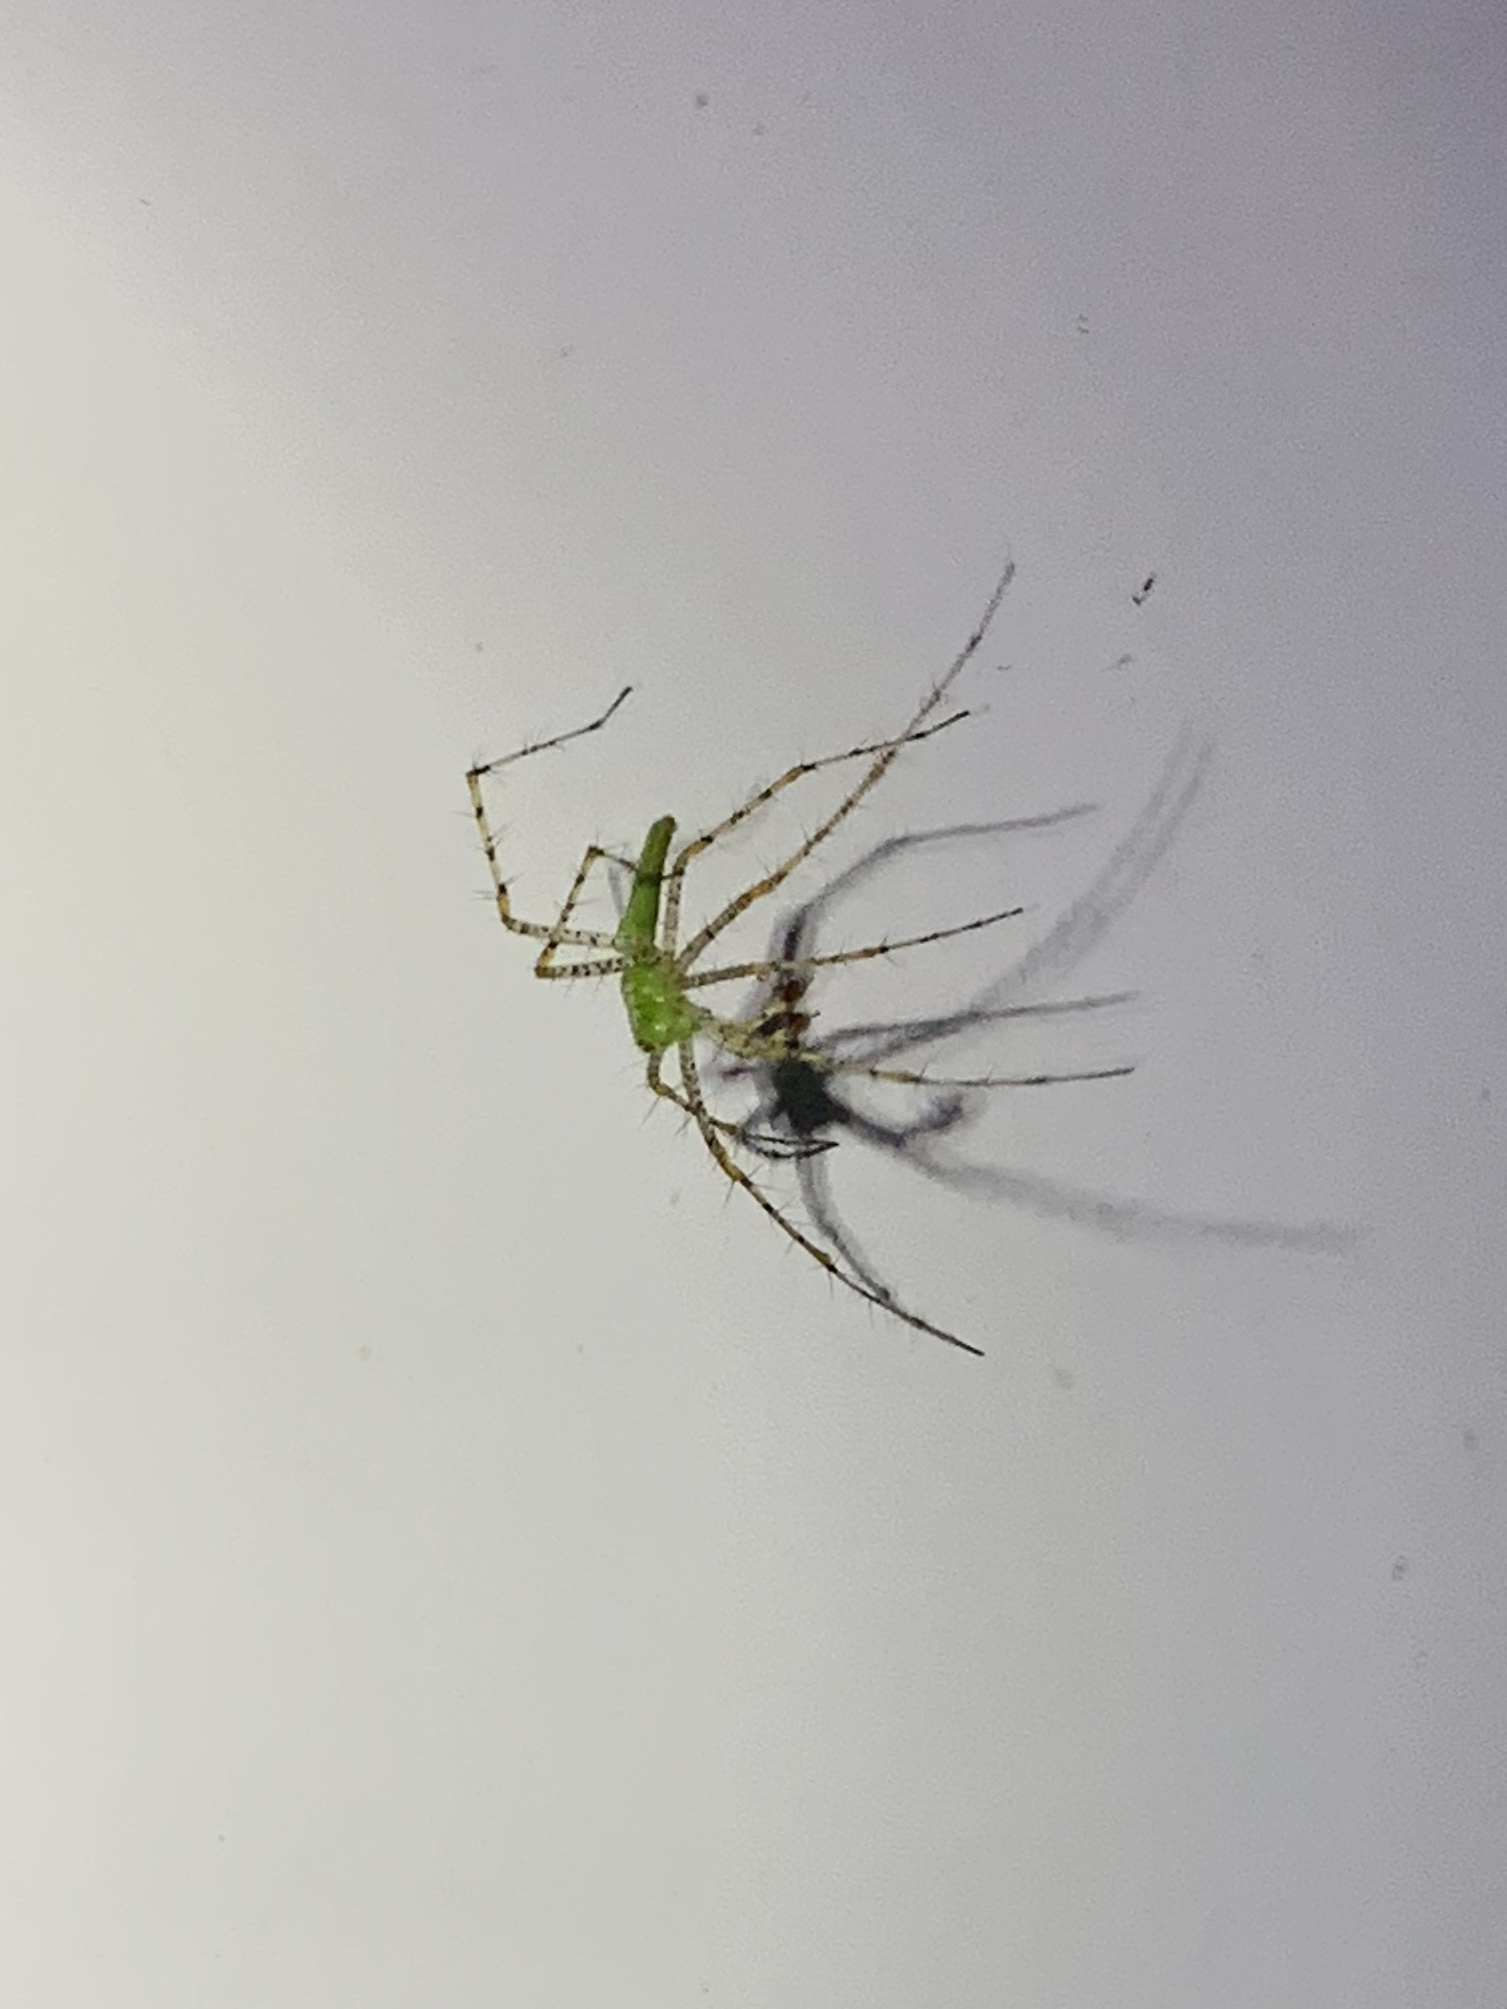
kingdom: Animalia
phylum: Arthropoda
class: Arachnida
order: Araneae
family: Oxyopidae
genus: Peucetia
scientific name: Peucetia viridans
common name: Lynx spiders
